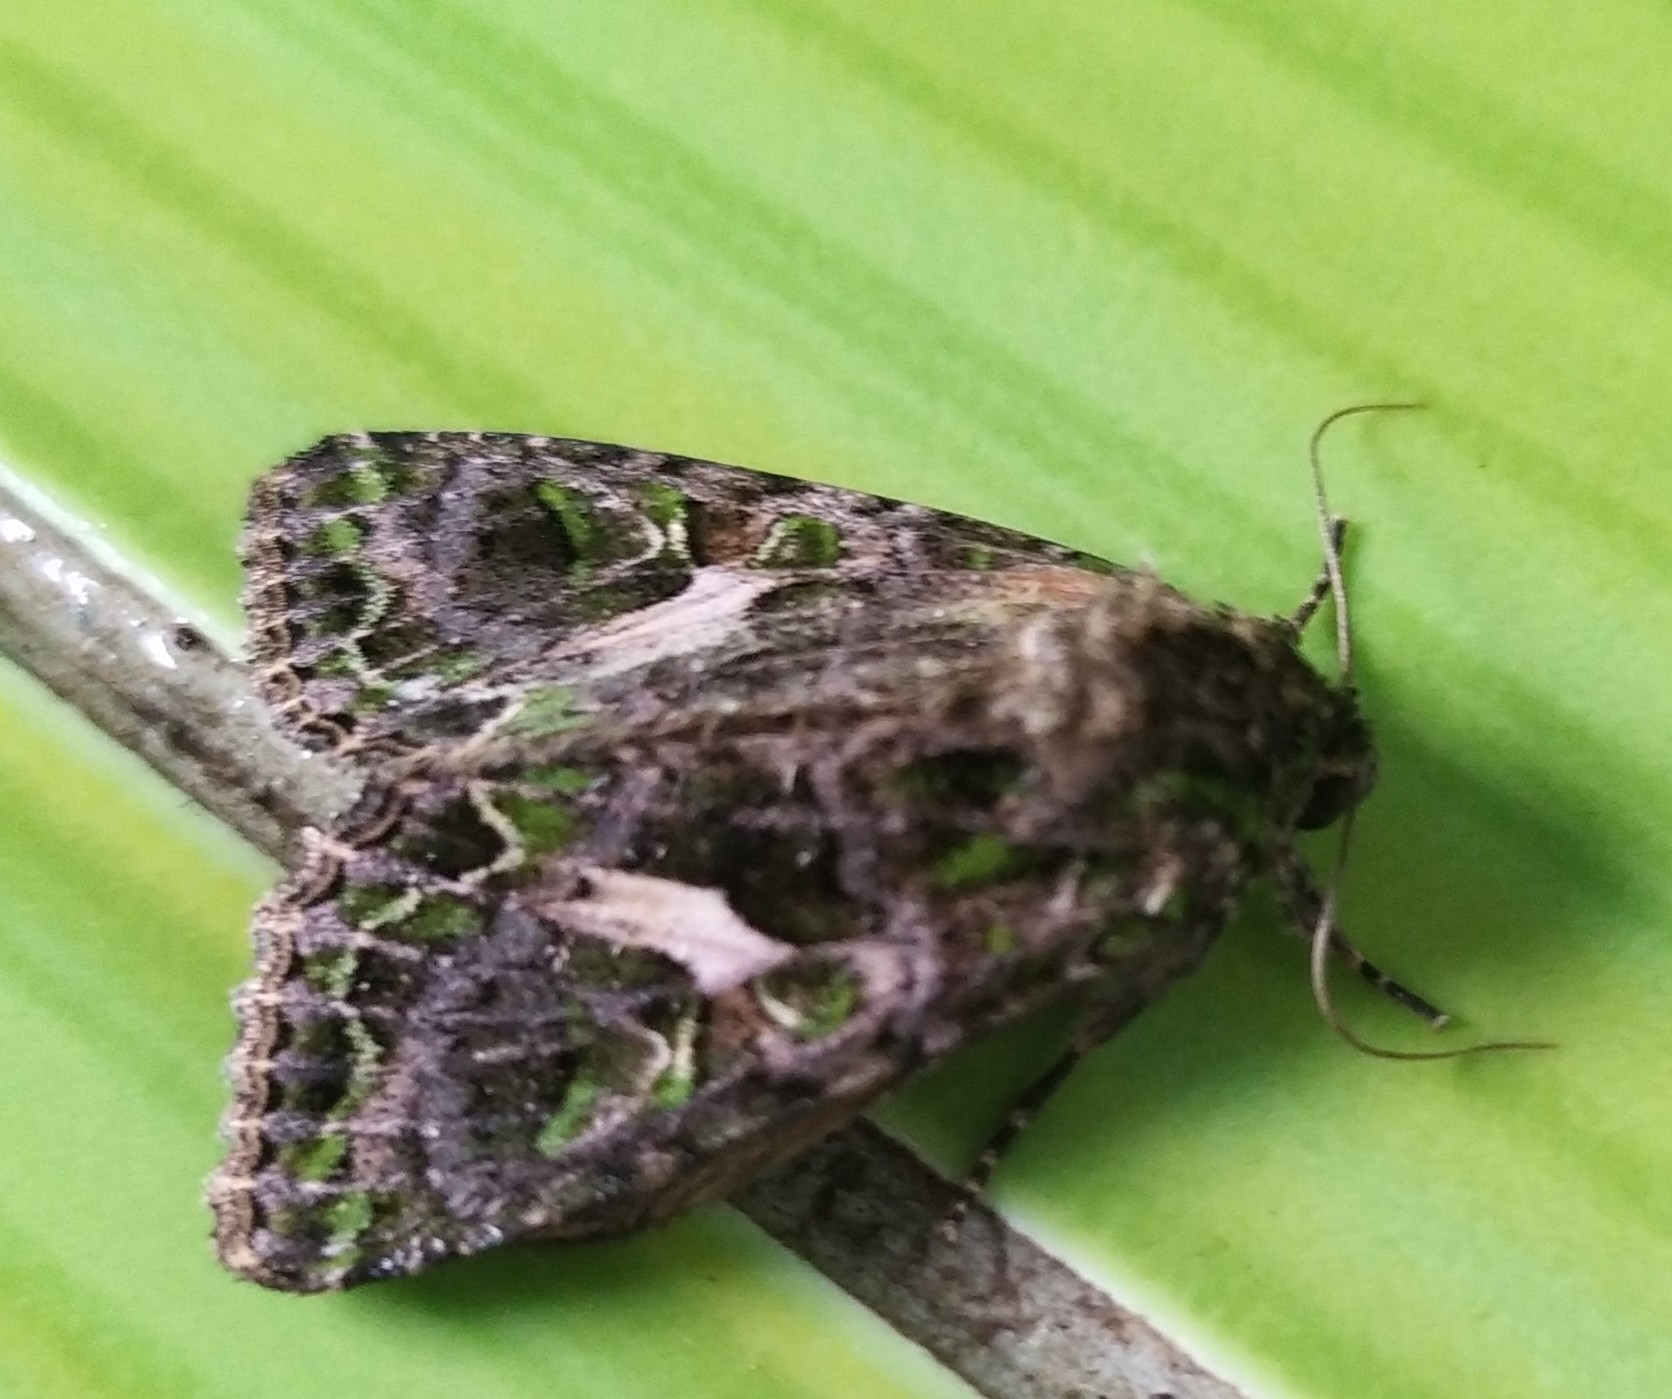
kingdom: Animalia
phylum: Arthropoda
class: Insecta
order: Lepidoptera
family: Noctuidae
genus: Trachea
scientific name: Trachea atriplicis
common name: Orache moth
